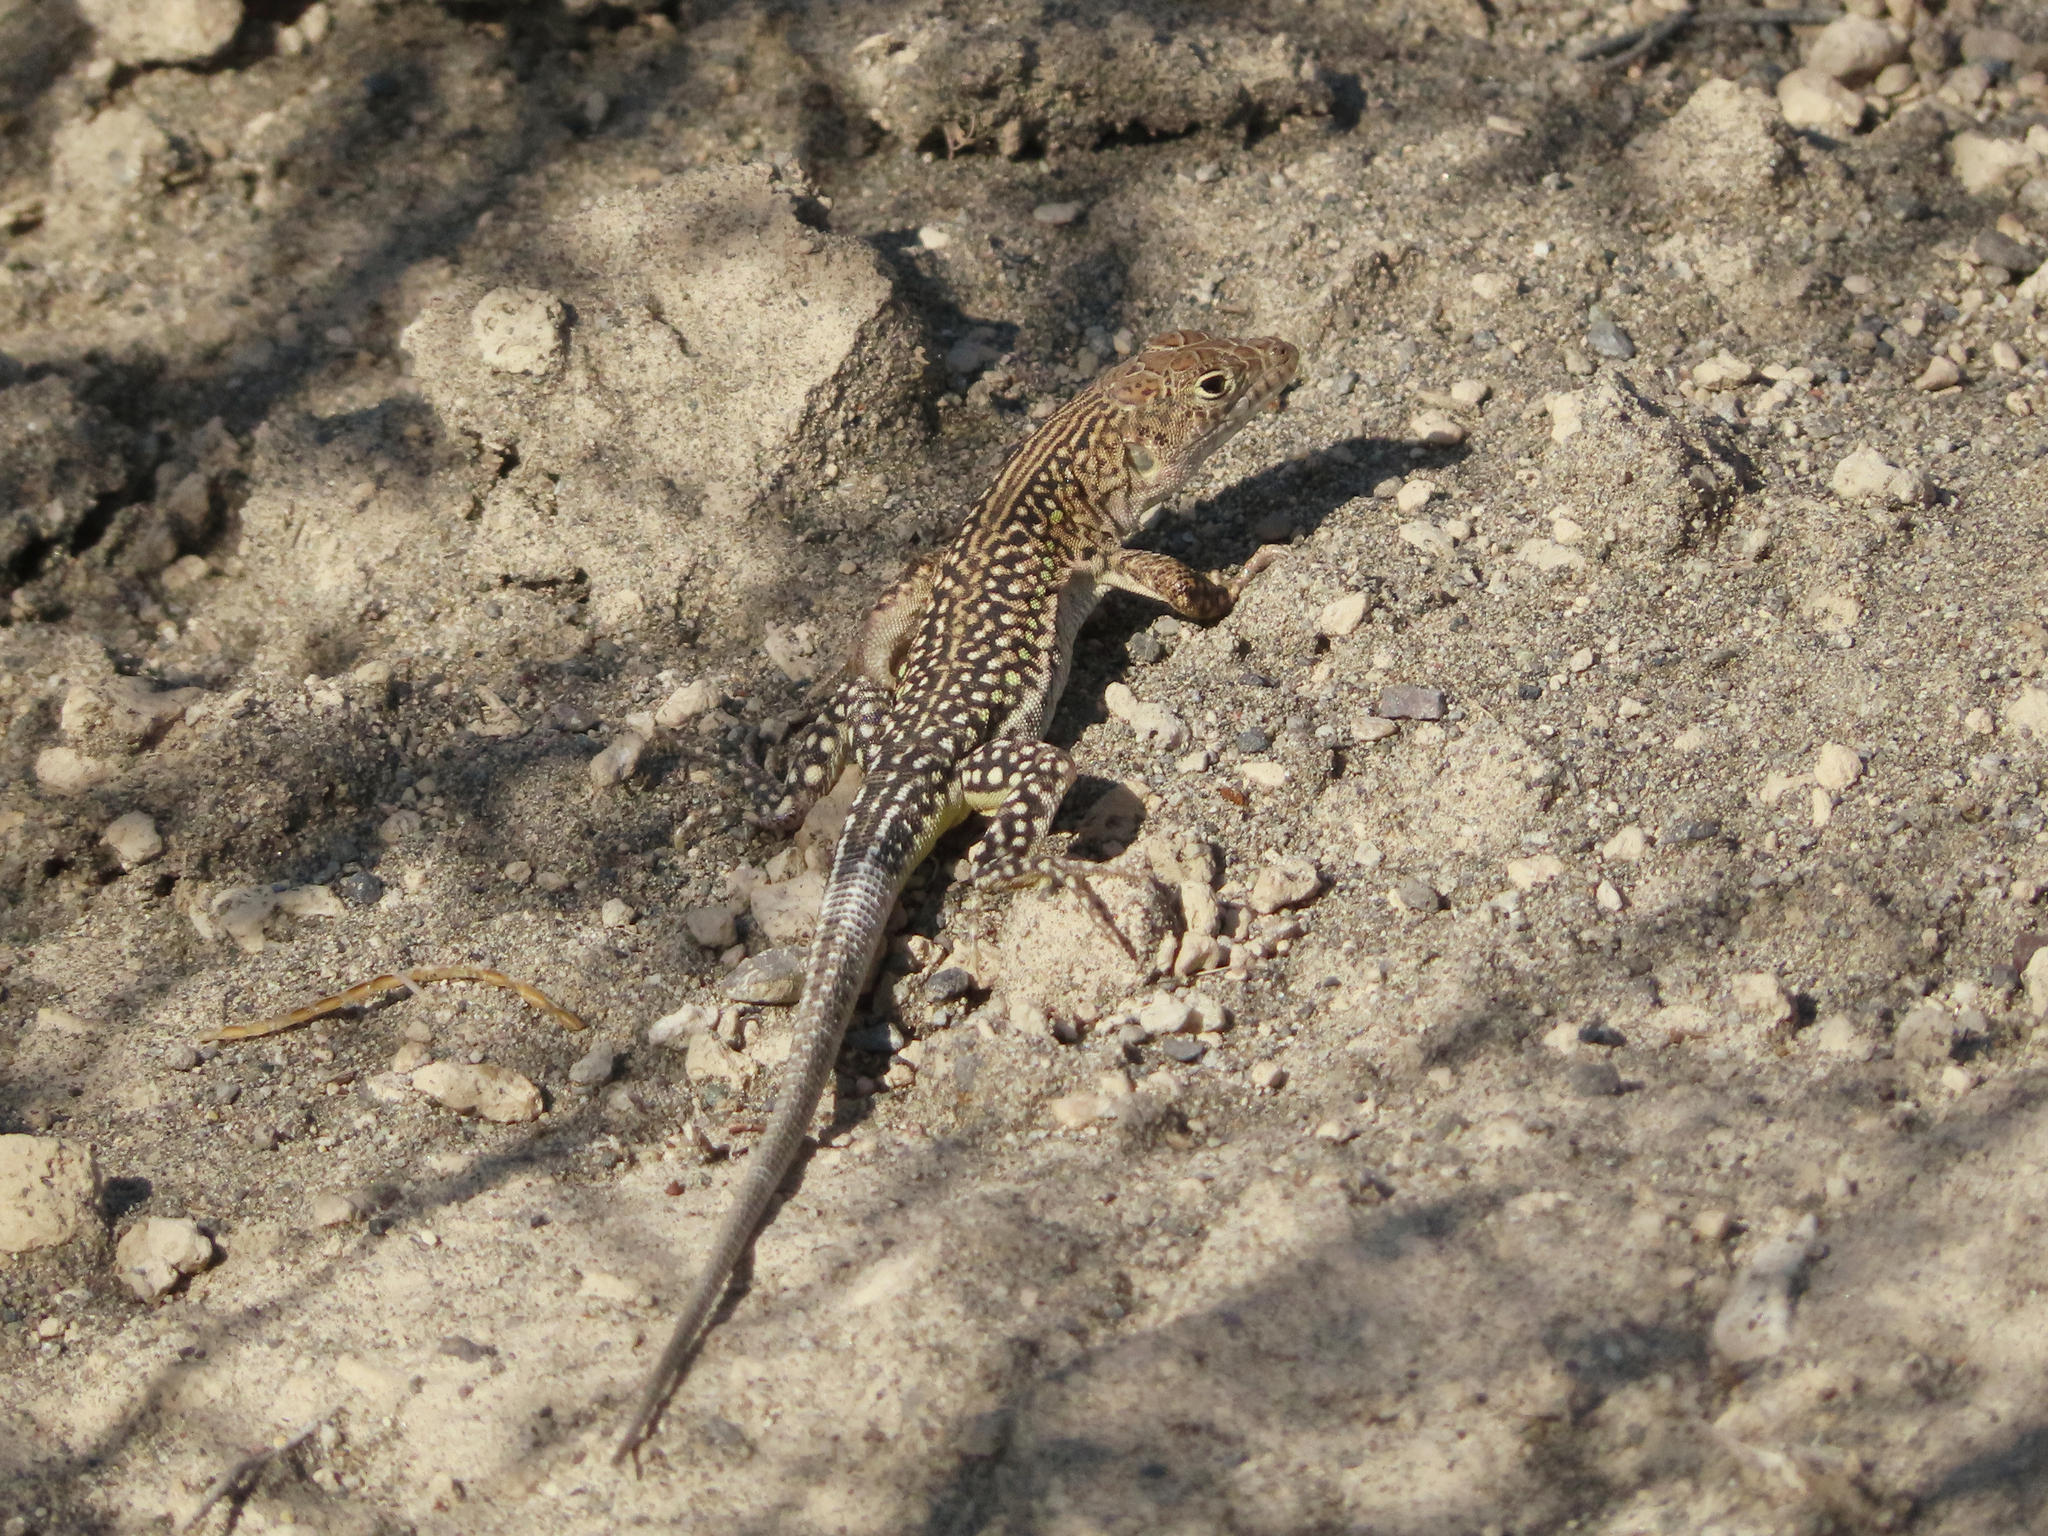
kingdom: Animalia
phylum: Chordata
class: Squamata
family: Lacertidae
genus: Eremias
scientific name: Eremias strauchi
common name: Strauch's racerunner
